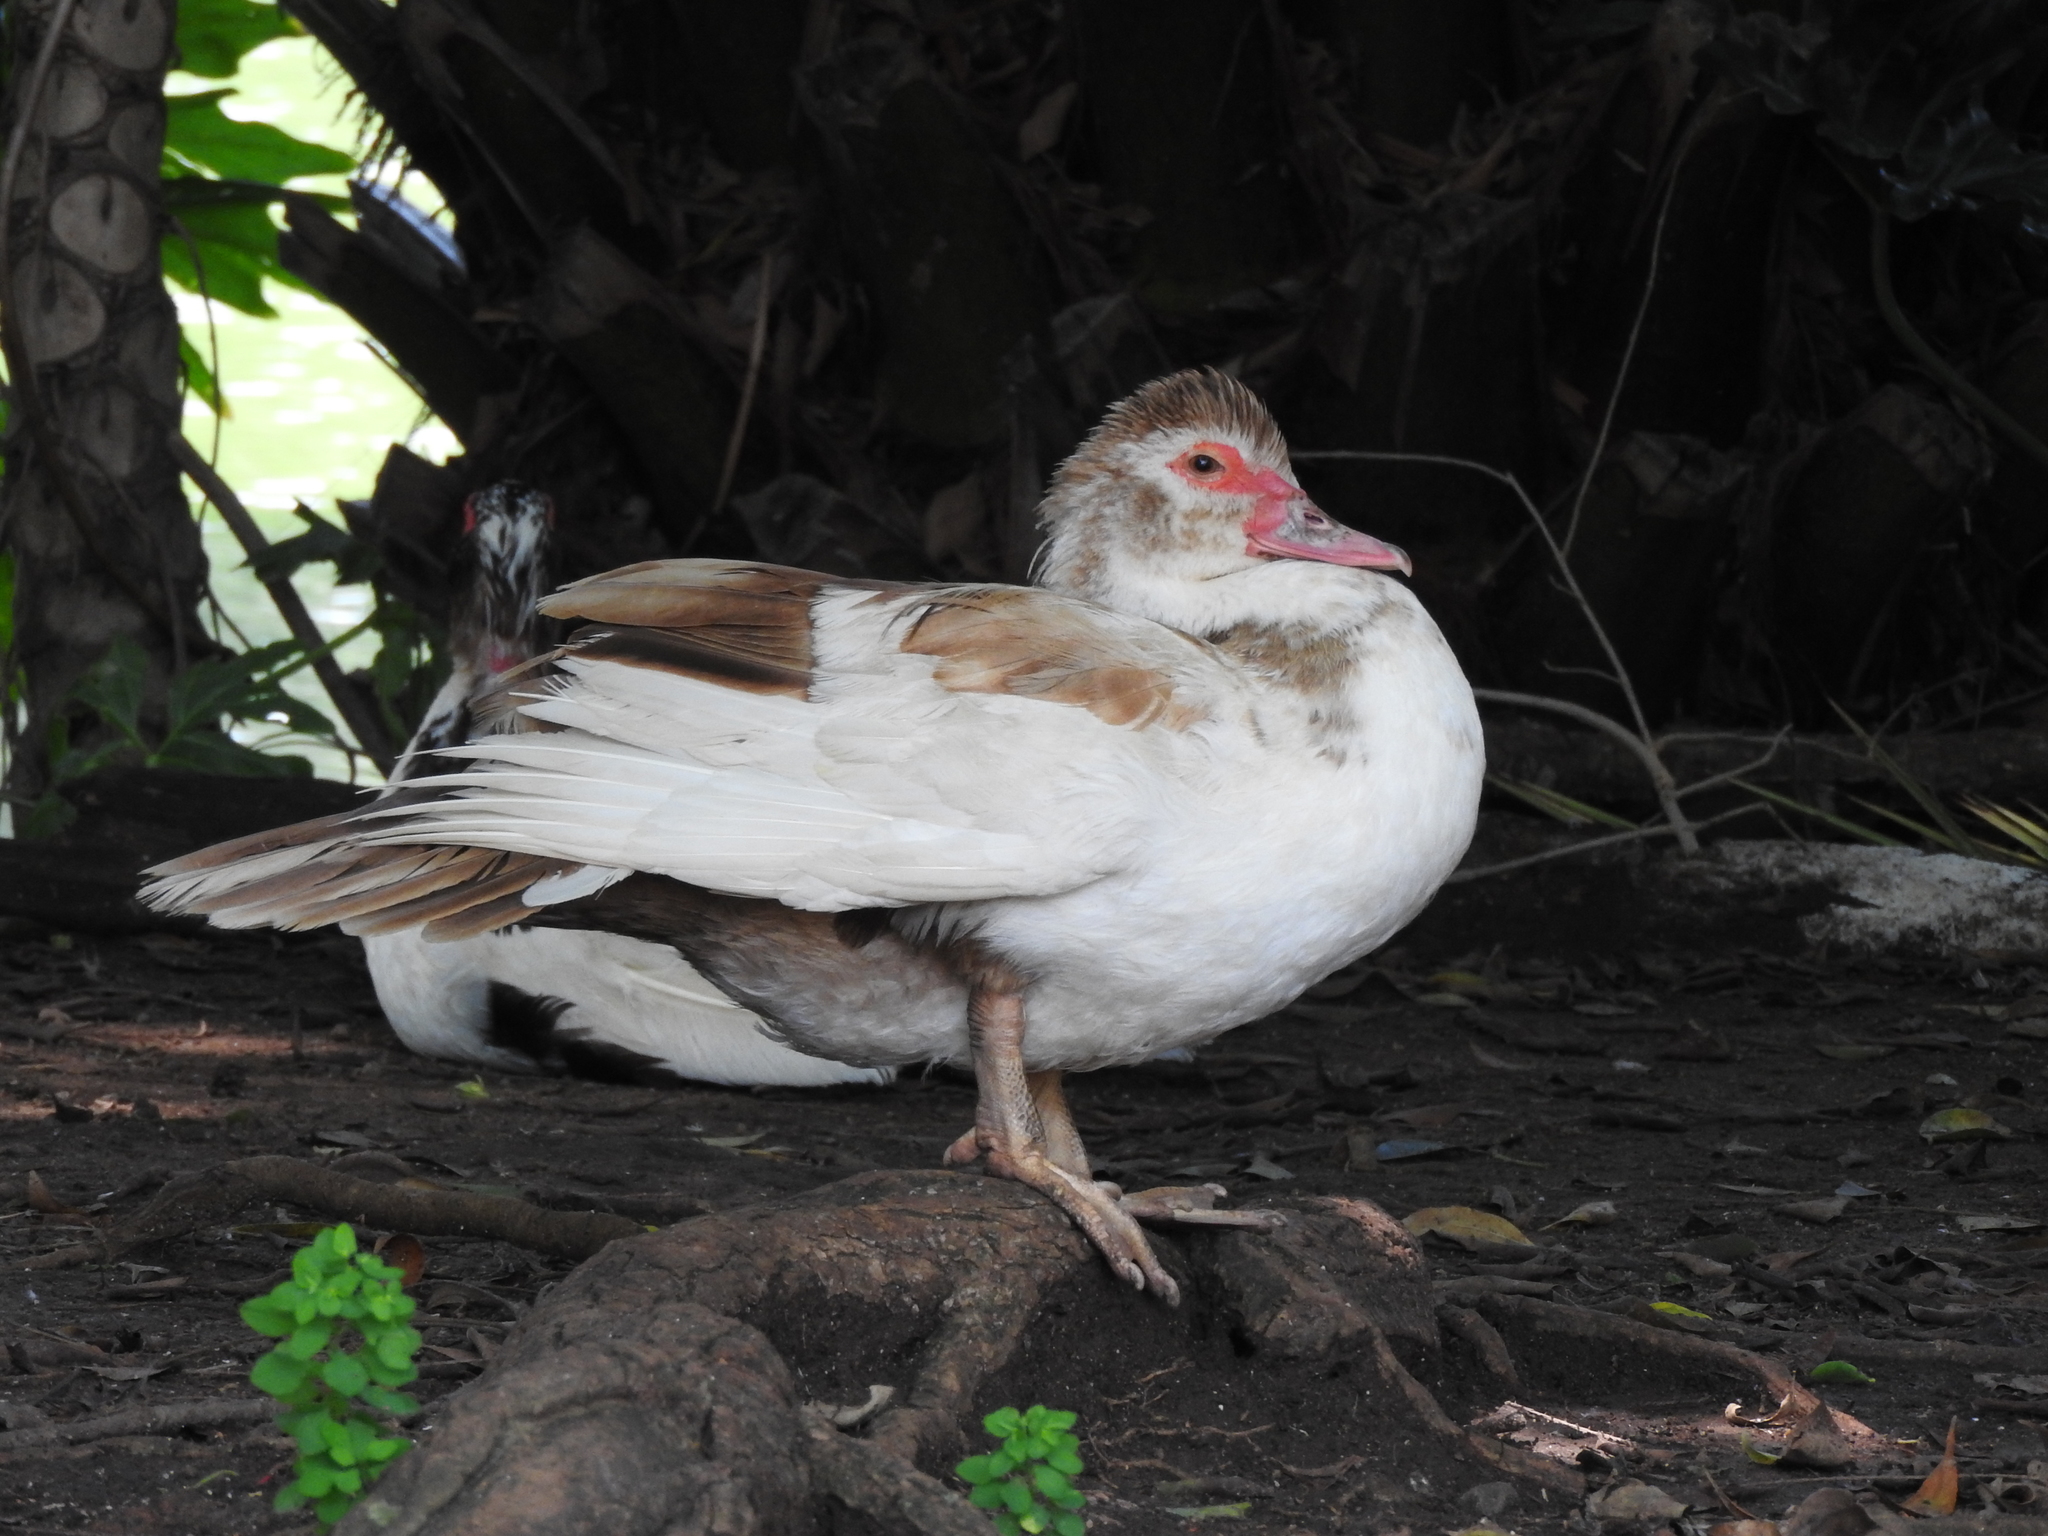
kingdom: Animalia
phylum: Chordata
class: Aves
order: Anseriformes
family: Anatidae
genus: Cairina
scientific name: Cairina moschata
